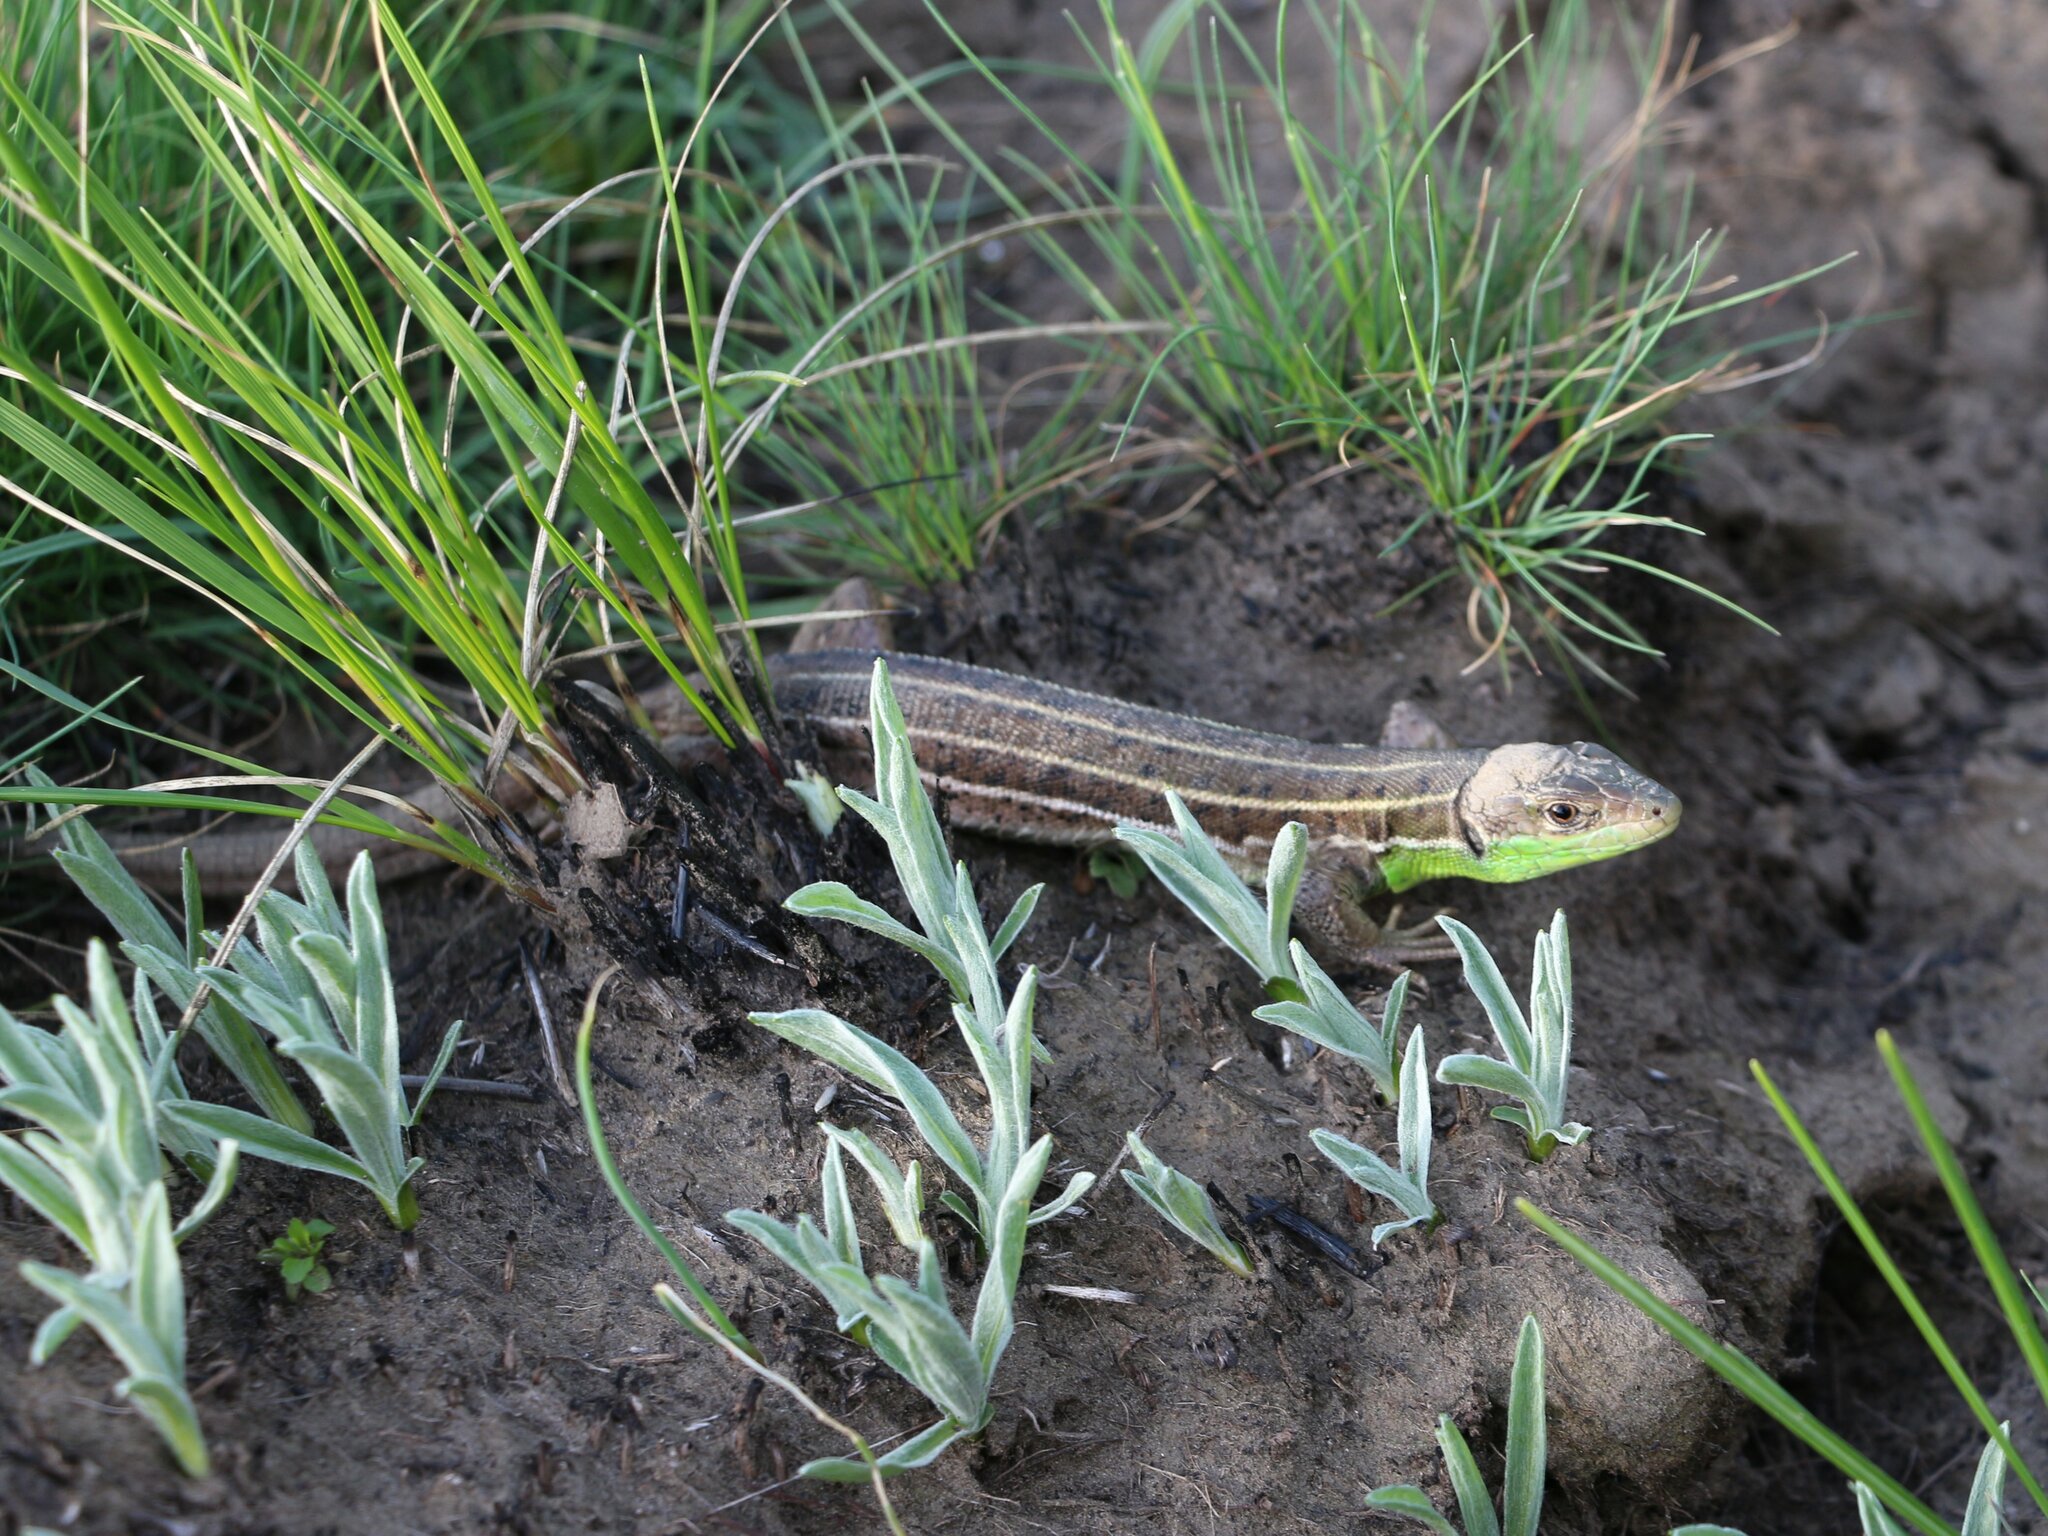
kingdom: Animalia
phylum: Chordata
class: Squamata
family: Lacertidae
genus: Lacerta
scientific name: Lacerta strigata
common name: Caspian green lizard
